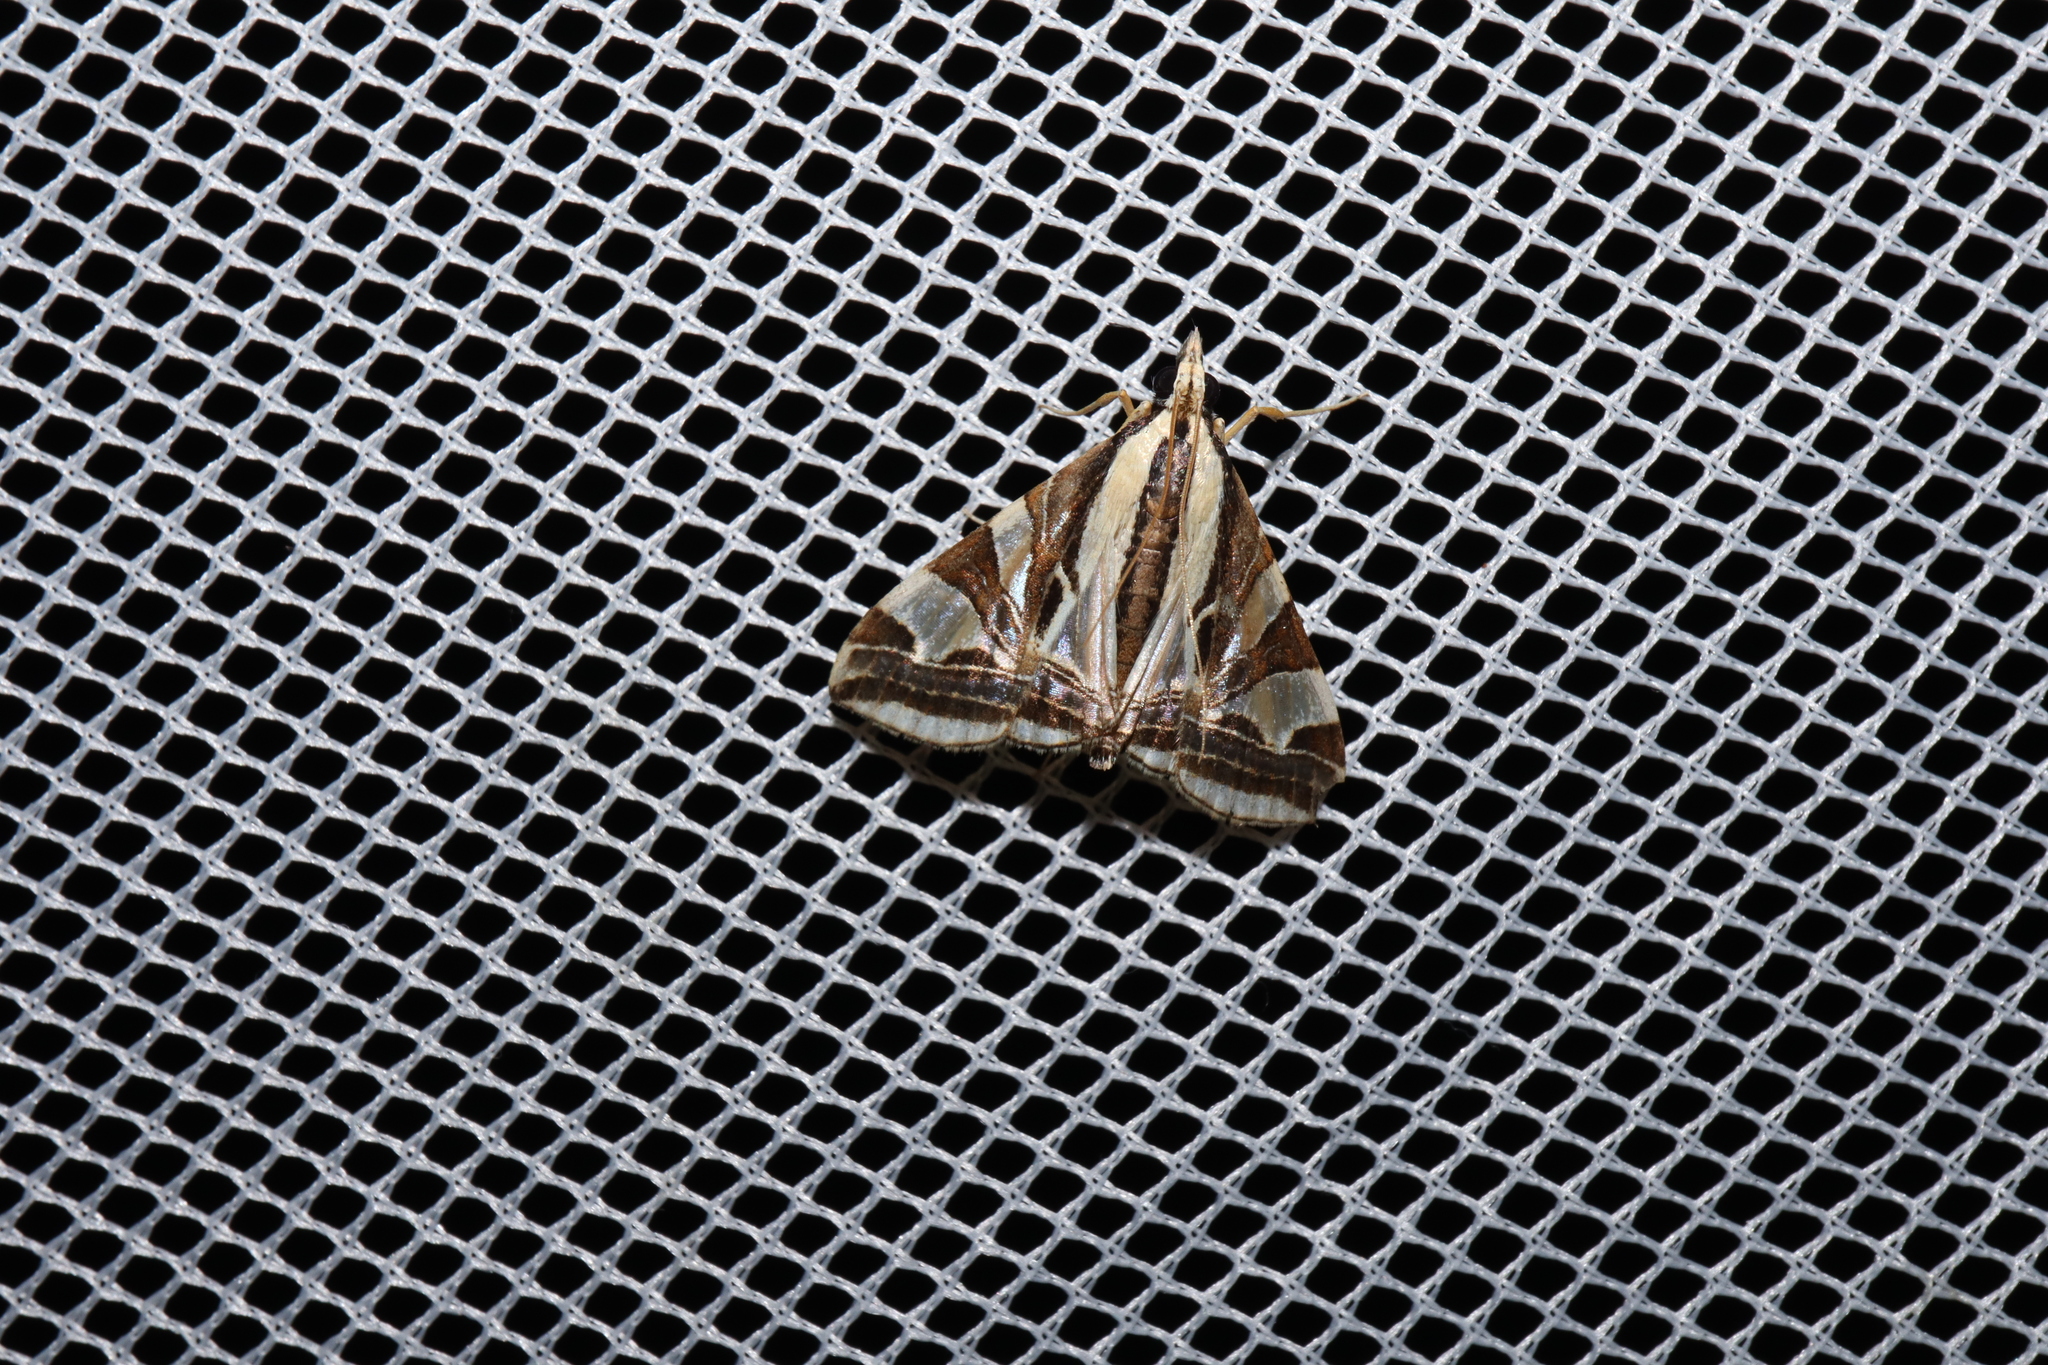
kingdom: Animalia
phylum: Arthropoda
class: Insecta
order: Lepidoptera
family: Crambidae
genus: Agrioglypta
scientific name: Agrioglypta excelsalis
